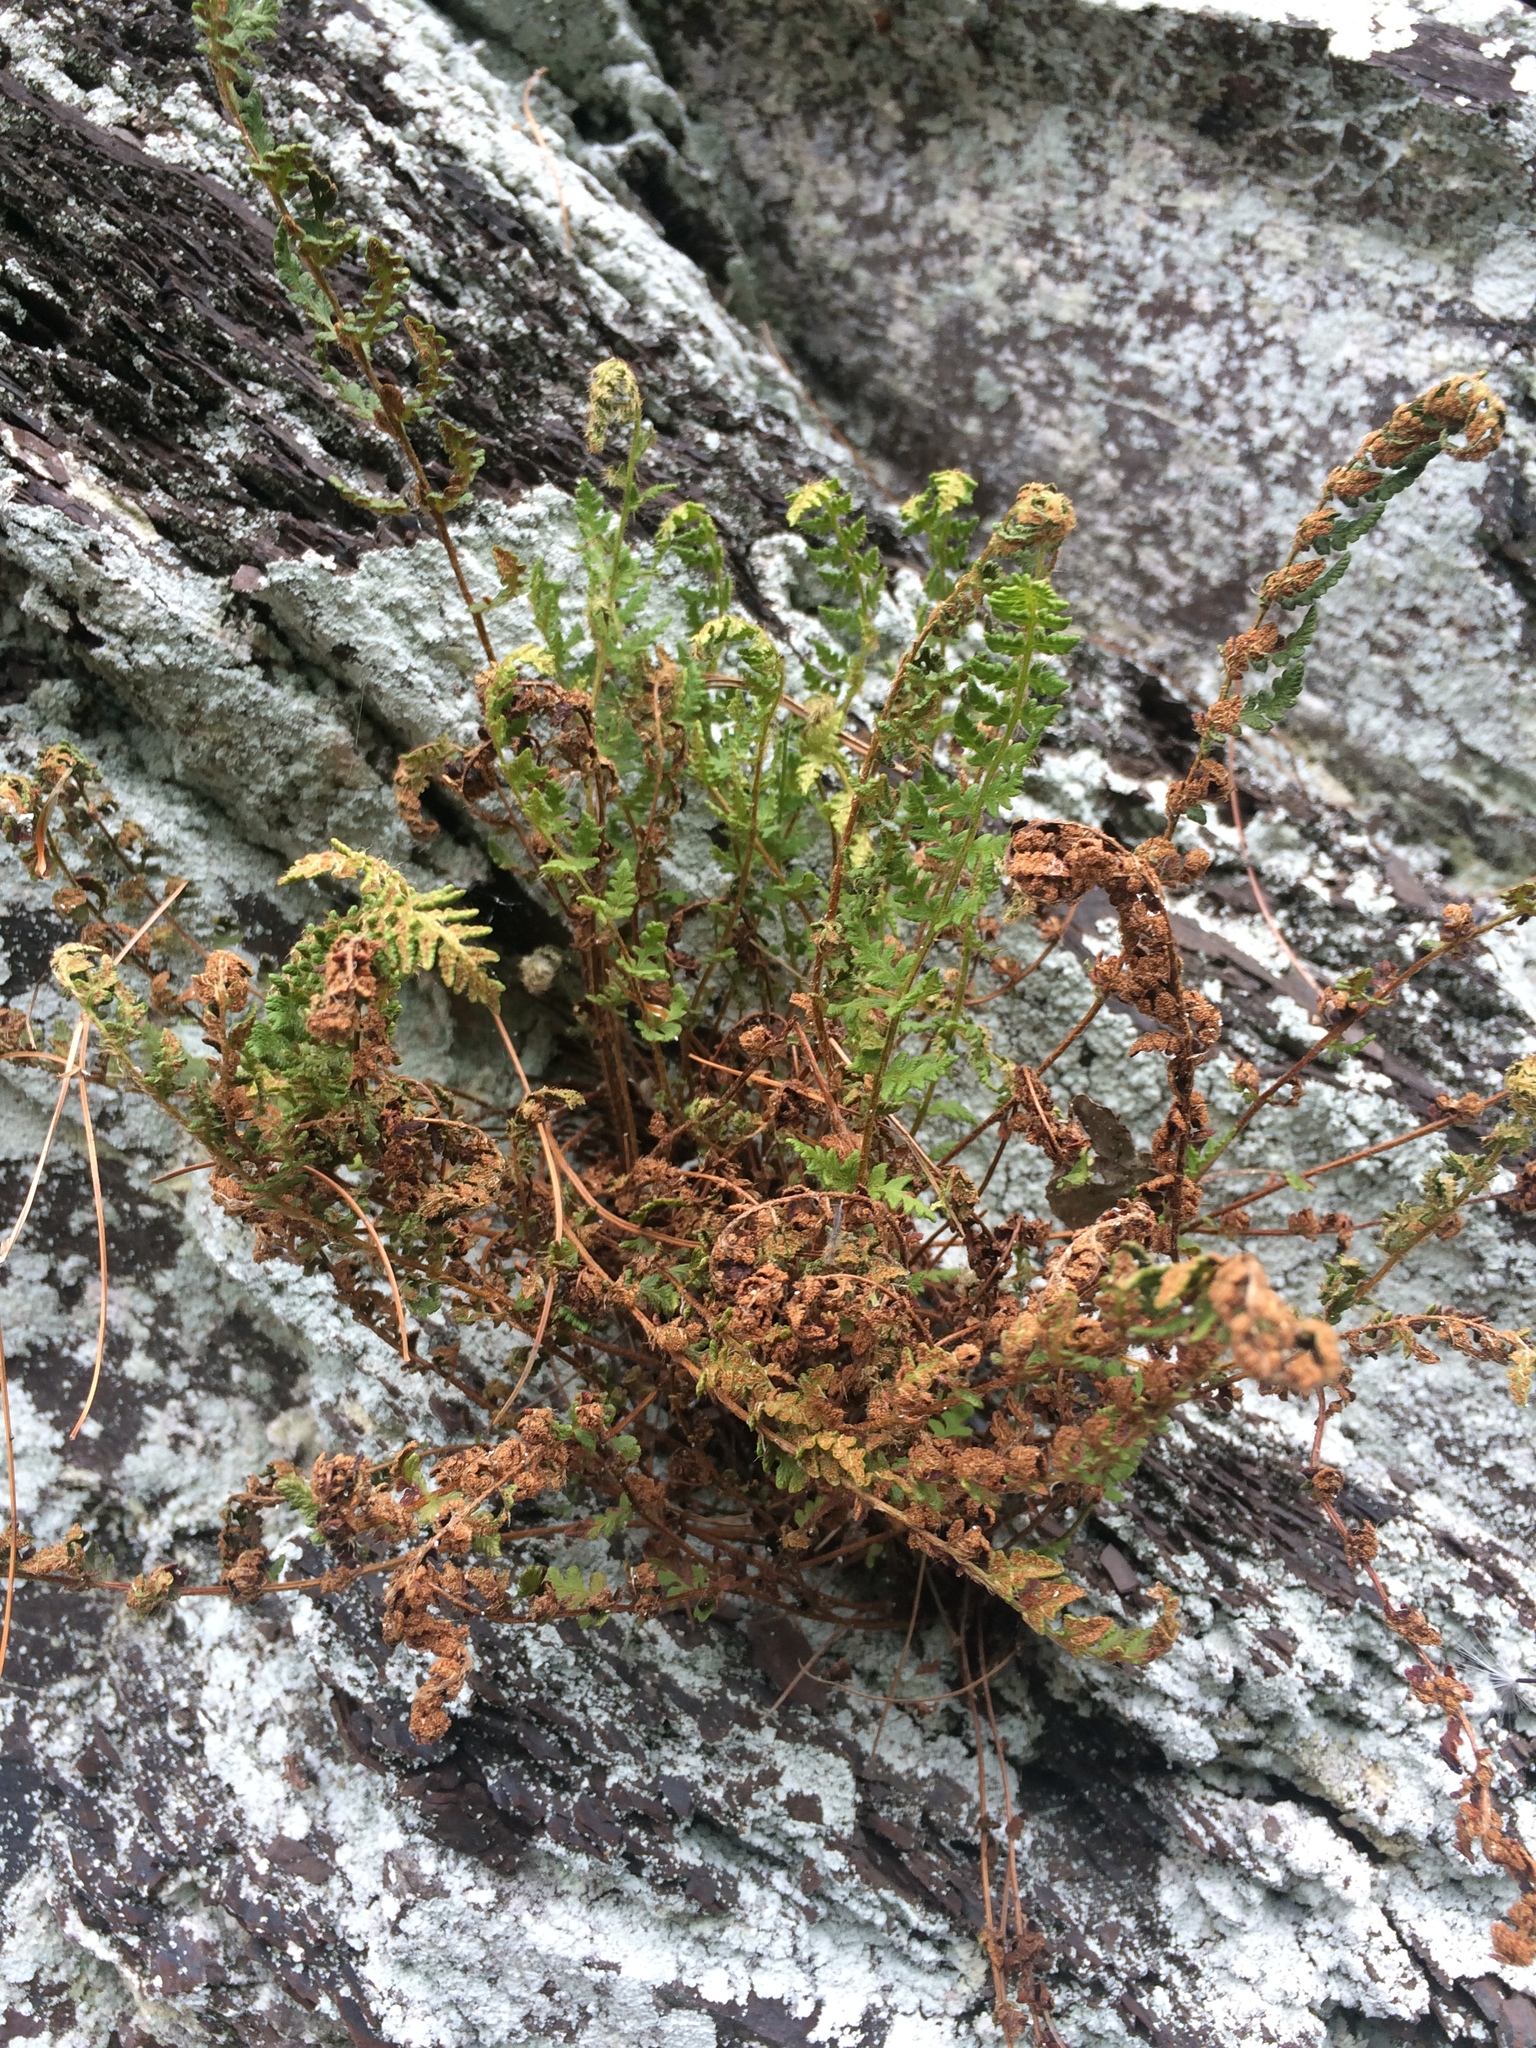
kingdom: Plantae
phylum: Tracheophyta
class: Polypodiopsida
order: Polypodiales
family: Woodsiaceae
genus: Woodsia
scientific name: Woodsia ilvensis
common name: Fragrant woodsia
